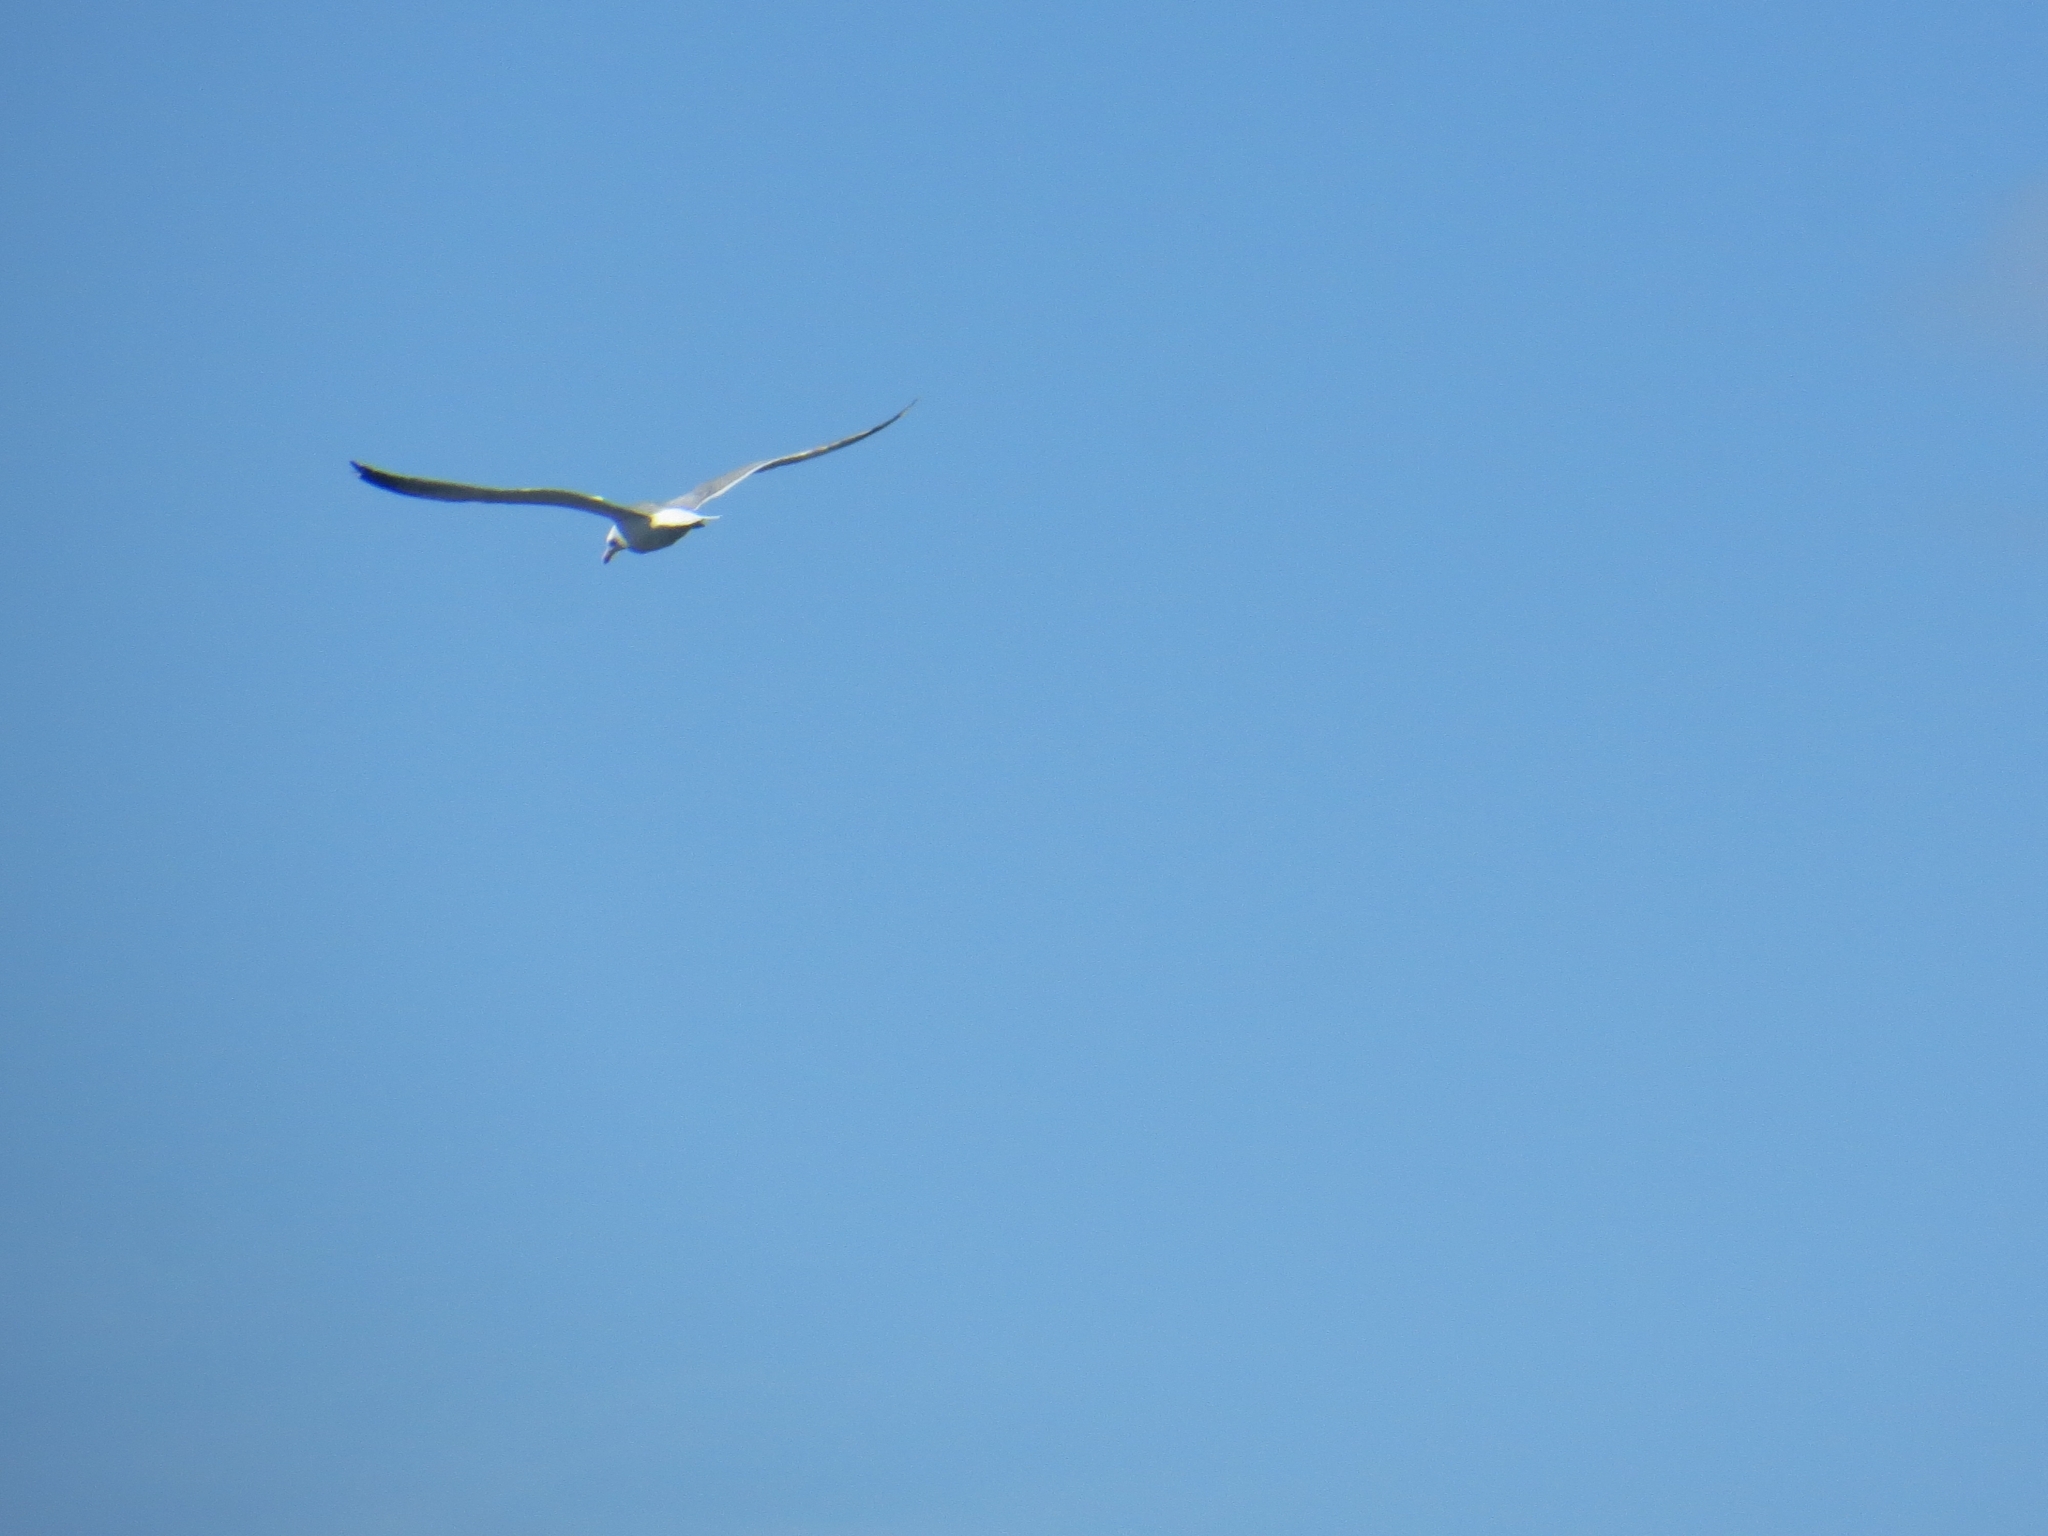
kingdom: Animalia
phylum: Chordata
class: Aves
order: Charadriiformes
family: Laridae
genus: Larus
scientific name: Larus fuscus
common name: Lesser black-backed gull
